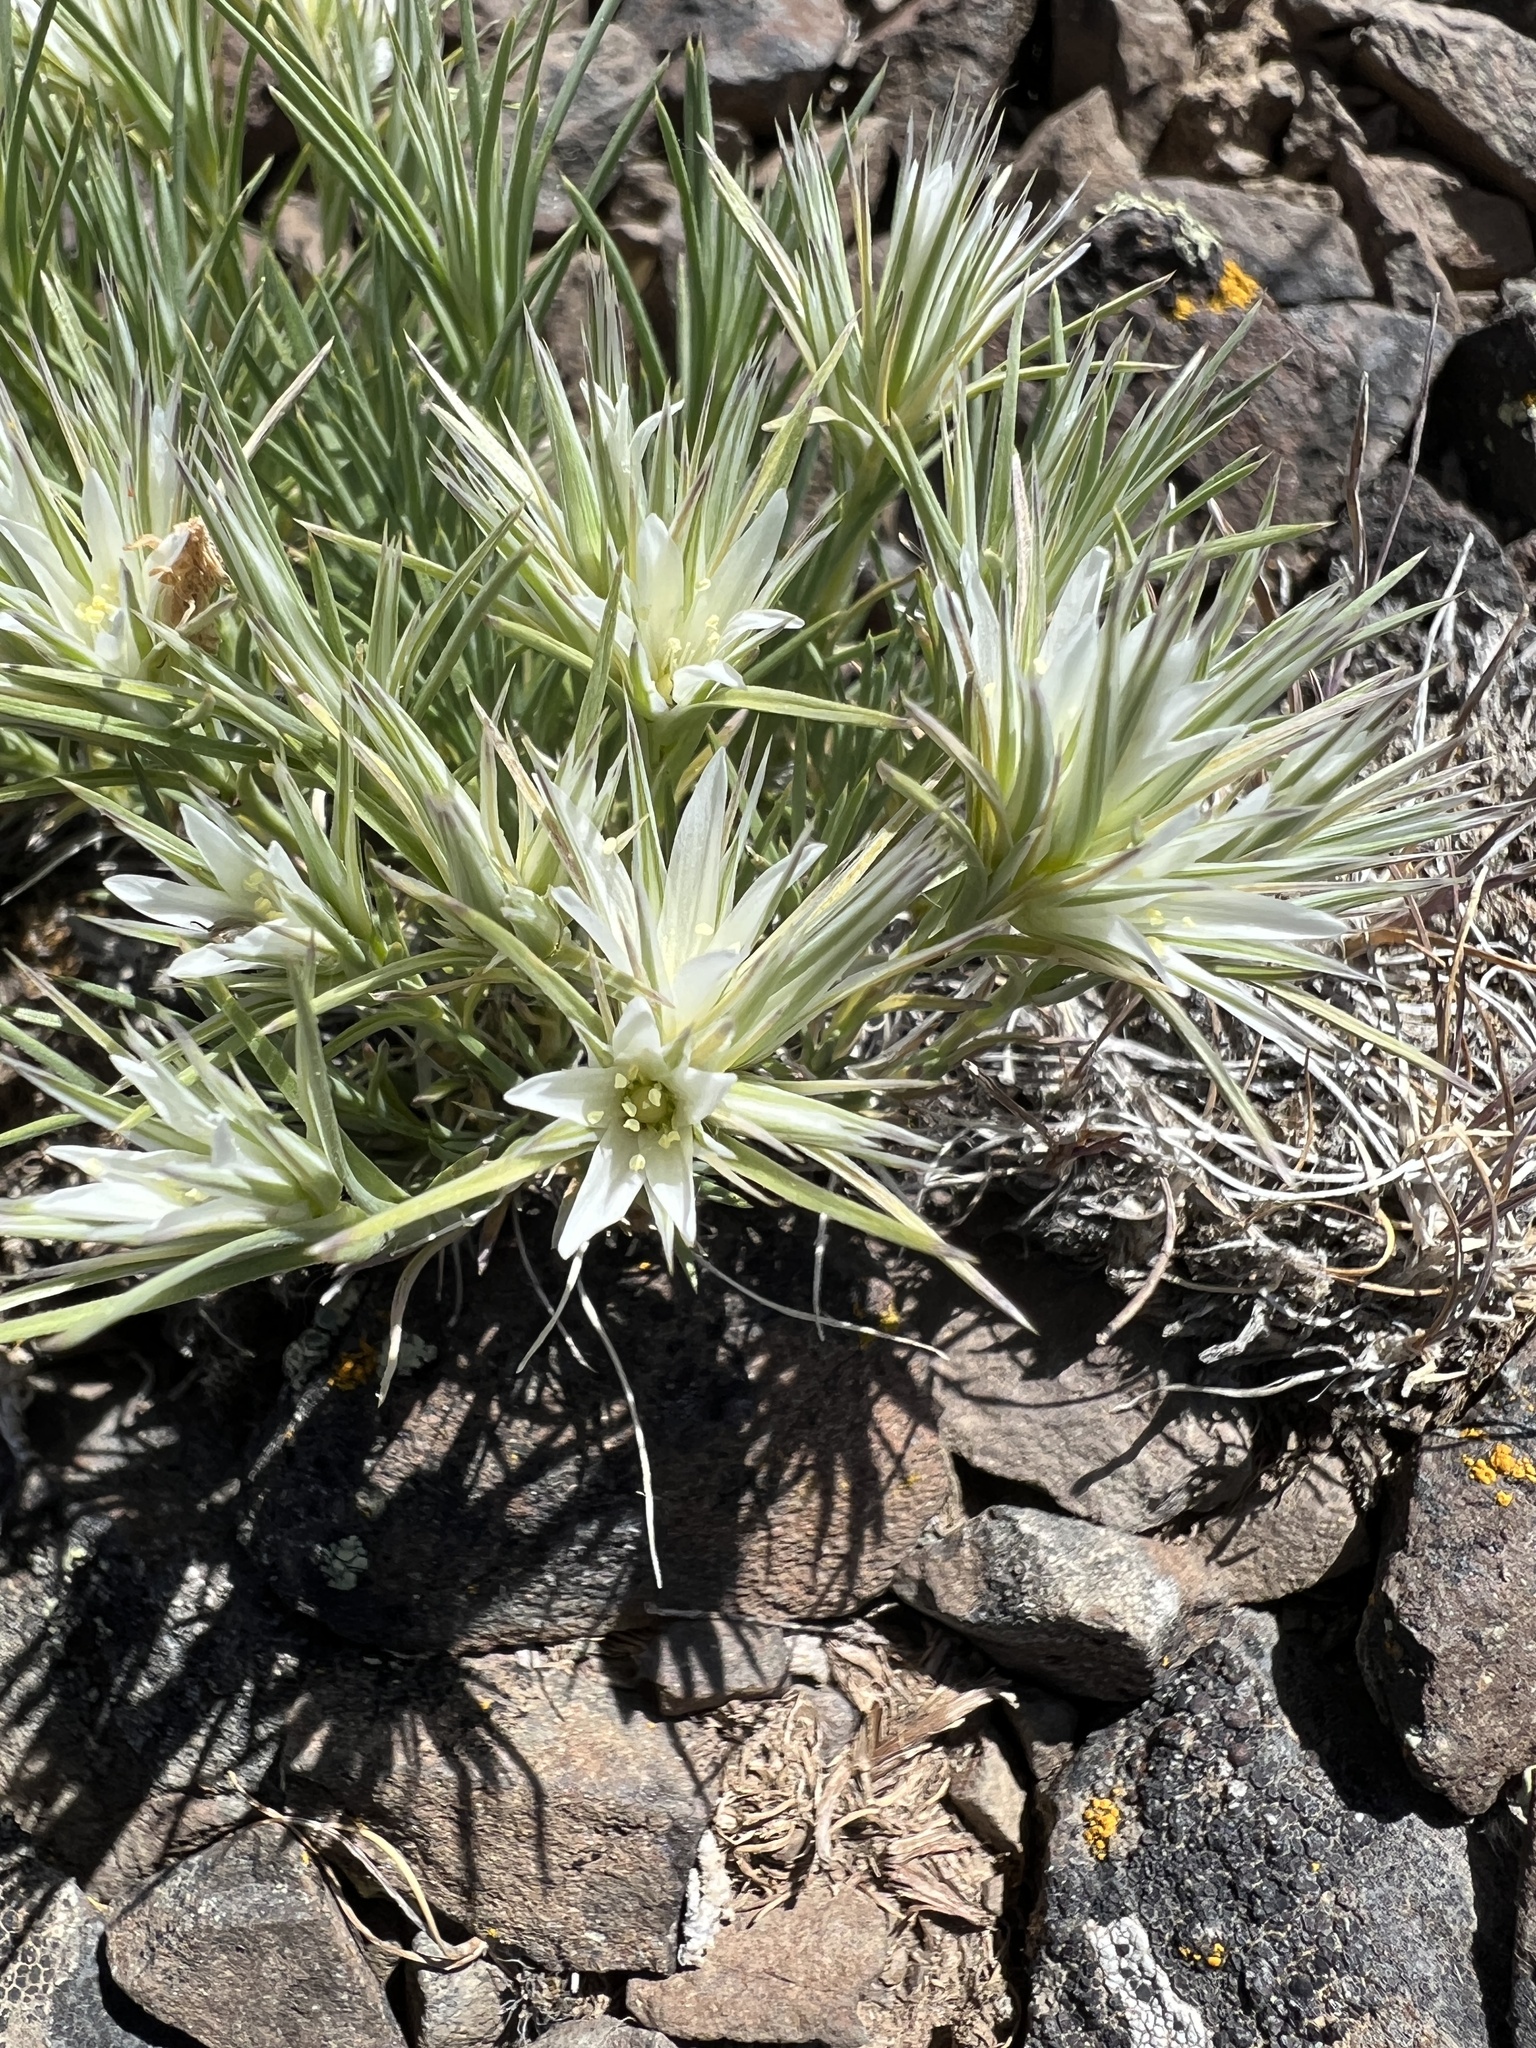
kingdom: Plantae
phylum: Tracheophyta
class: Magnoliopsida
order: Caryophyllales
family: Caryophyllaceae
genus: Eremogone
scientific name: Eremogone franklinii
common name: Franklin's sandwort
